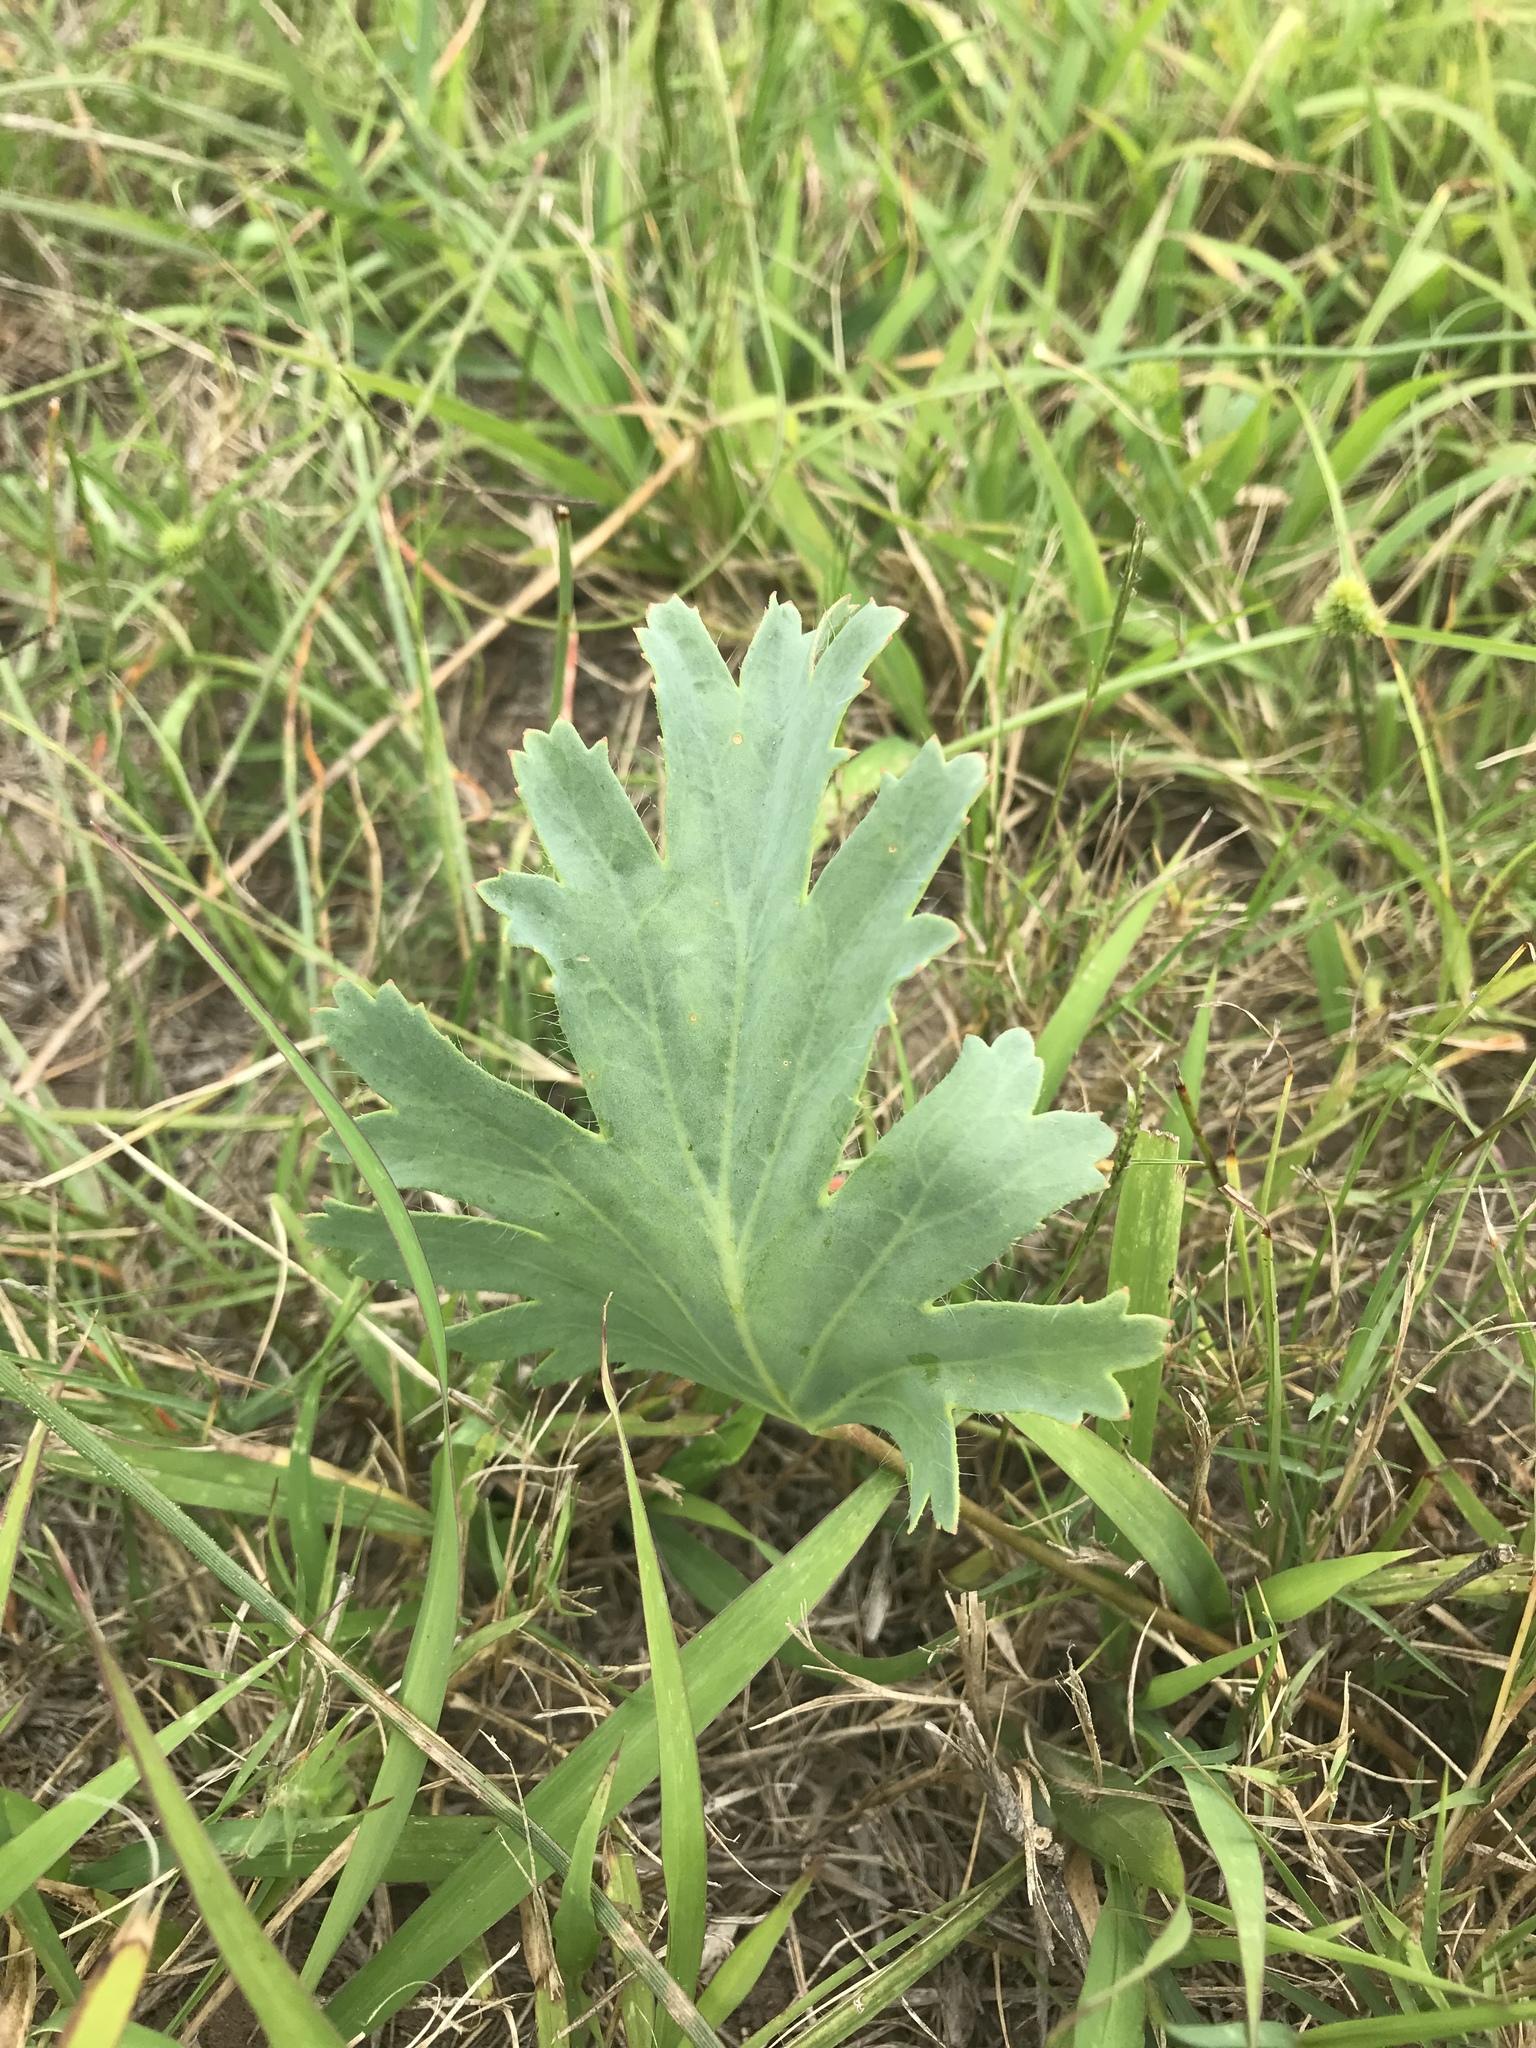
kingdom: Plantae
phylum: Tracheophyta
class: Magnoliopsida
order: Geraniales
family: Geraniaceae
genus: Pelargonium
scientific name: Pelargonium pulverulentum
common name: Powdered-leaf pelargonium
